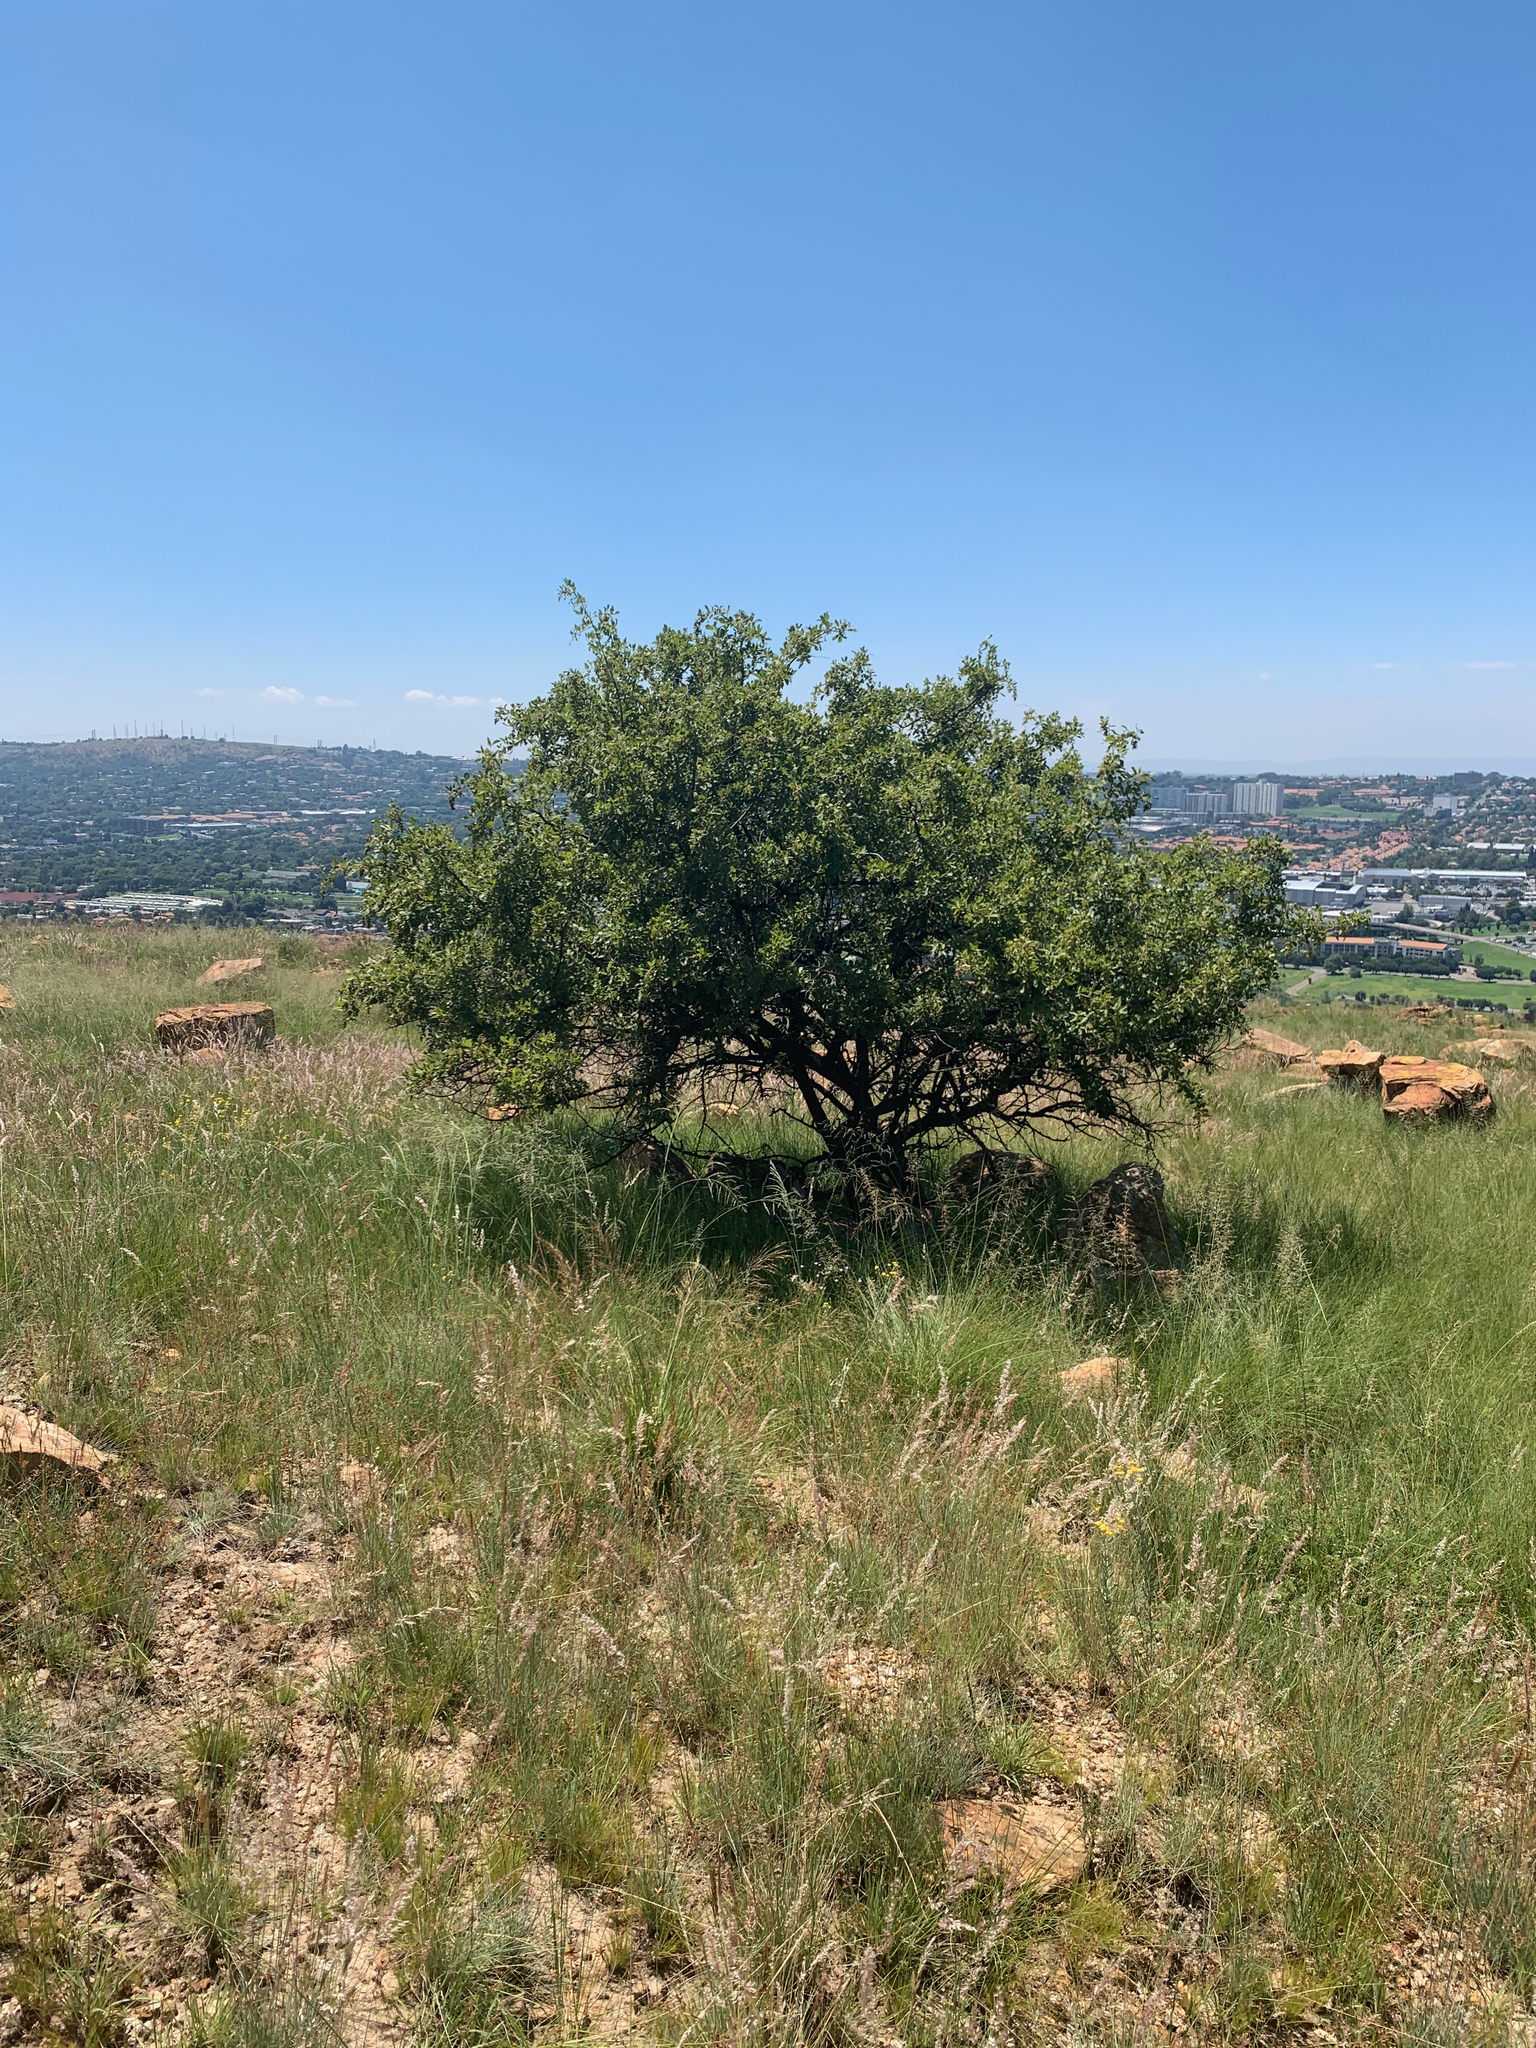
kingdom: Plantae
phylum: Tracheophyta
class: Magnoliopsida
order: Sapindales
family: Anacardiaceae
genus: Searsia
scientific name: Searsia pyroides
